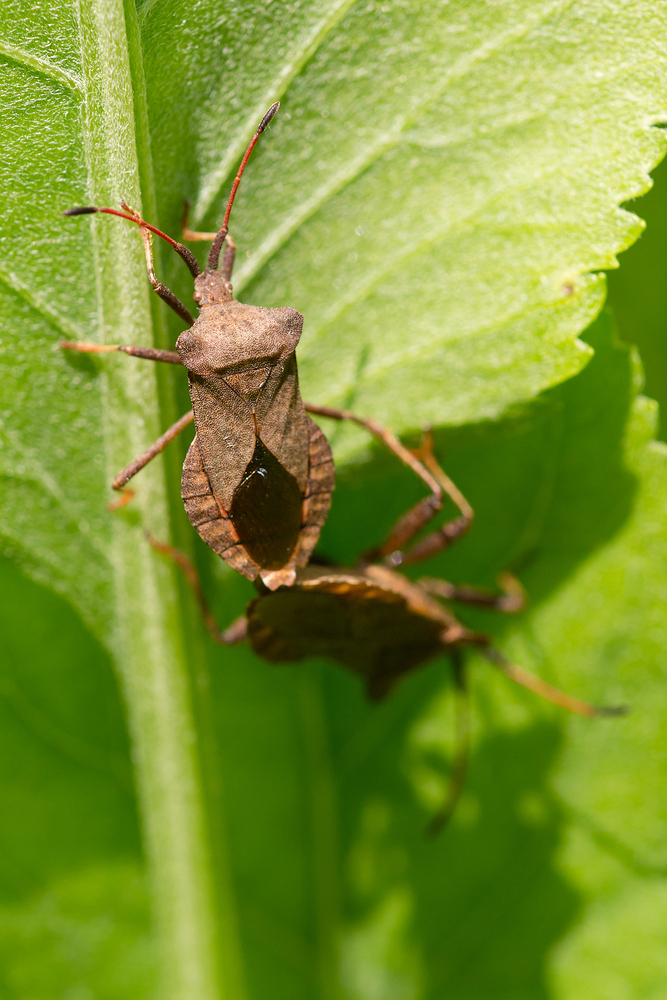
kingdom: Animalia
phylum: Arthropoda
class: Insecta
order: Hemiptera
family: Coreidae
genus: Coreus
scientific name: Coreus marginatus
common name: Dock bug
